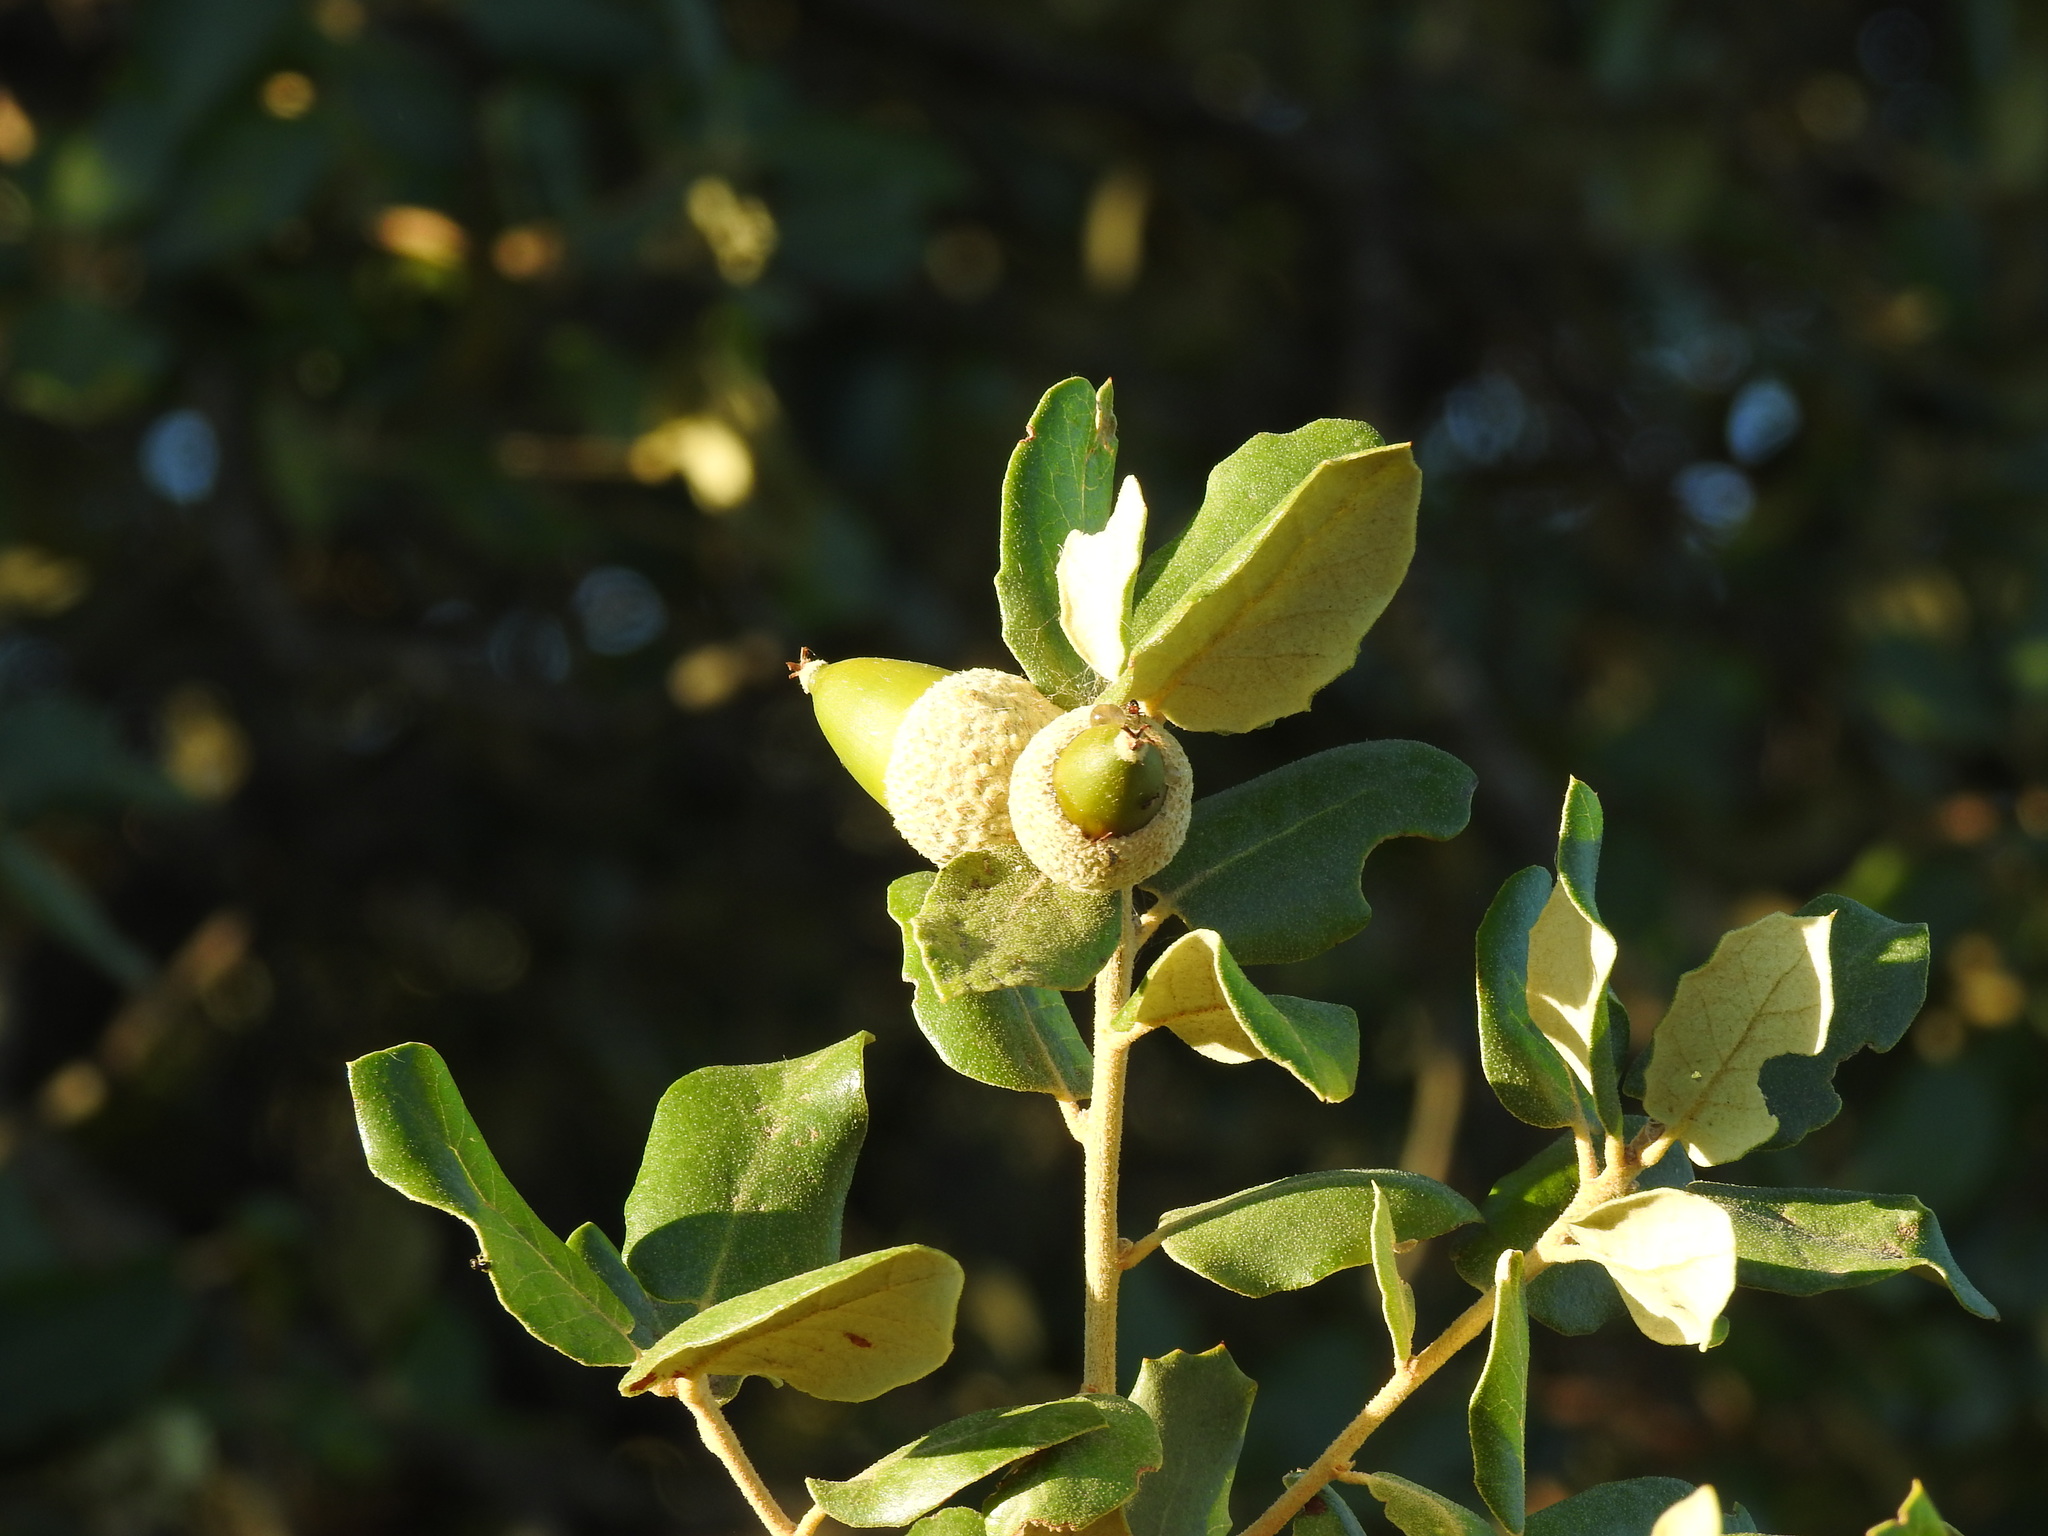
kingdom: Plantae
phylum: Tracheophyta
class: Magnoliopsida
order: Fagales
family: Fagaceae
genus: Quercus
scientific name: Quercus rotundifolia
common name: Holm oak
